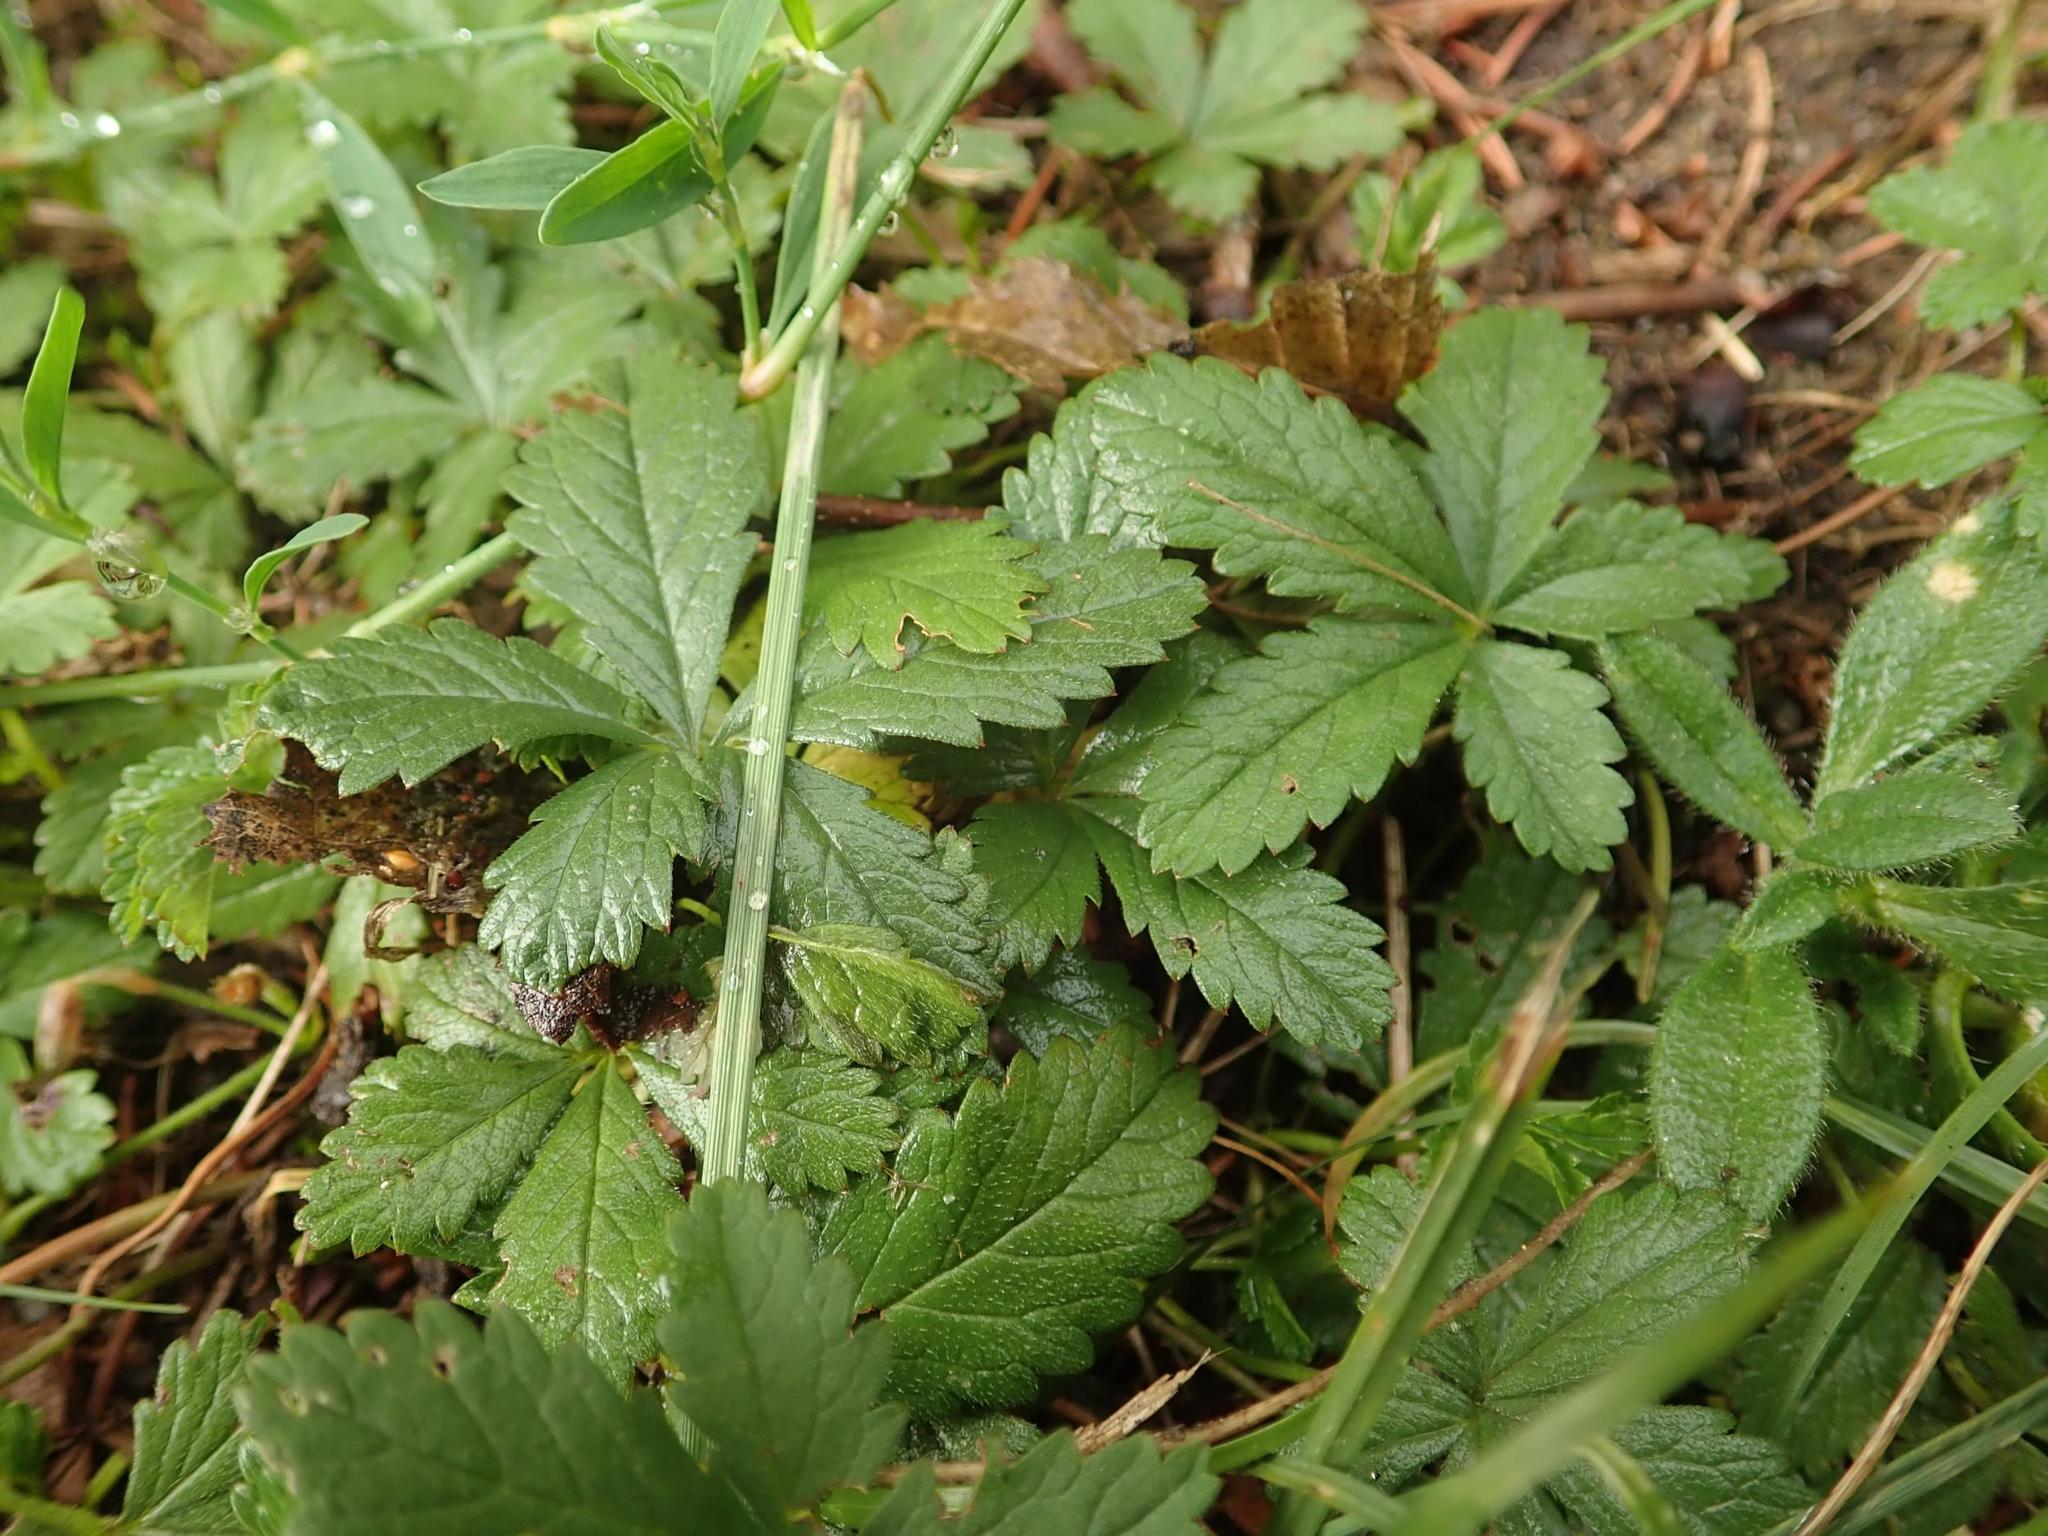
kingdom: Plantae
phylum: Tracheophyta
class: Magnoliopsida
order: Rosales
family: Rosaceae
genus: Potentilla
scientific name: Potentilla reptans
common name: Creeping cinquefoil
